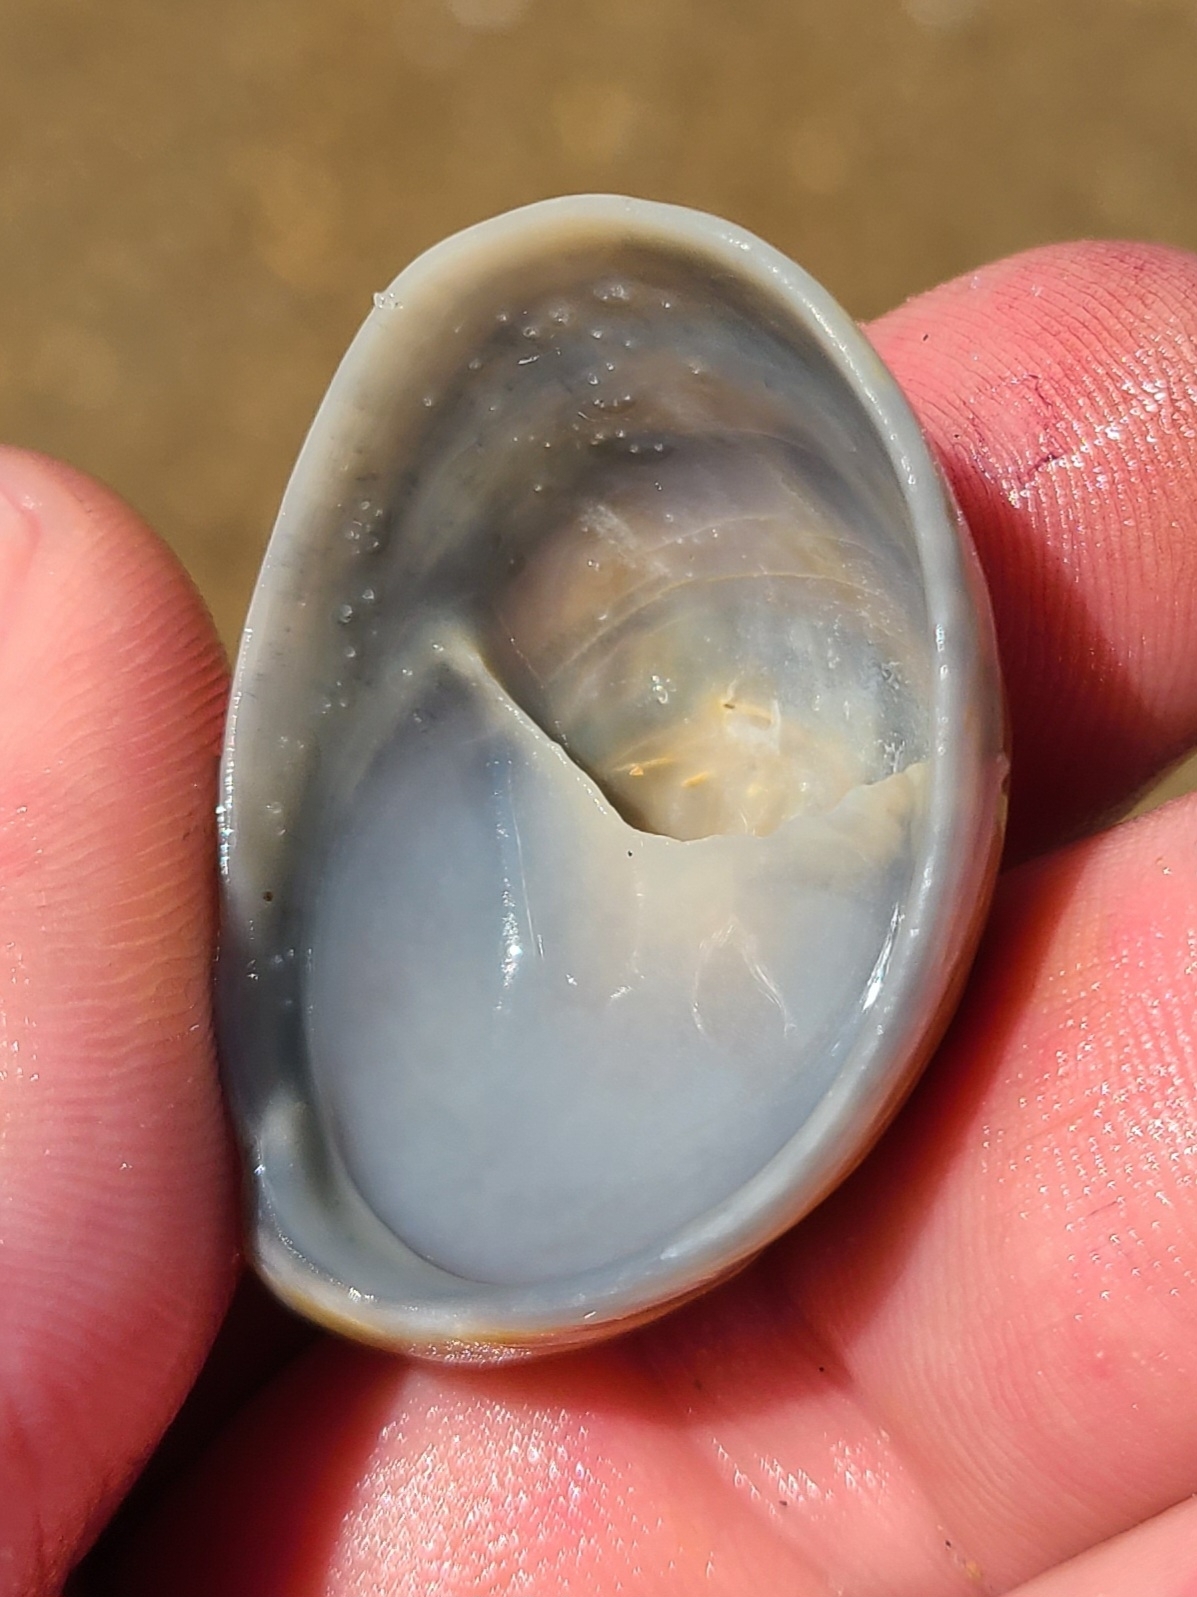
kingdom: Animalia
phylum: Mollusca
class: Gastropoda
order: Littorinimorpha
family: Calyptraeidae
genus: Crepidula
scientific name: Crepidula fornicata
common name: Slipper limpet
